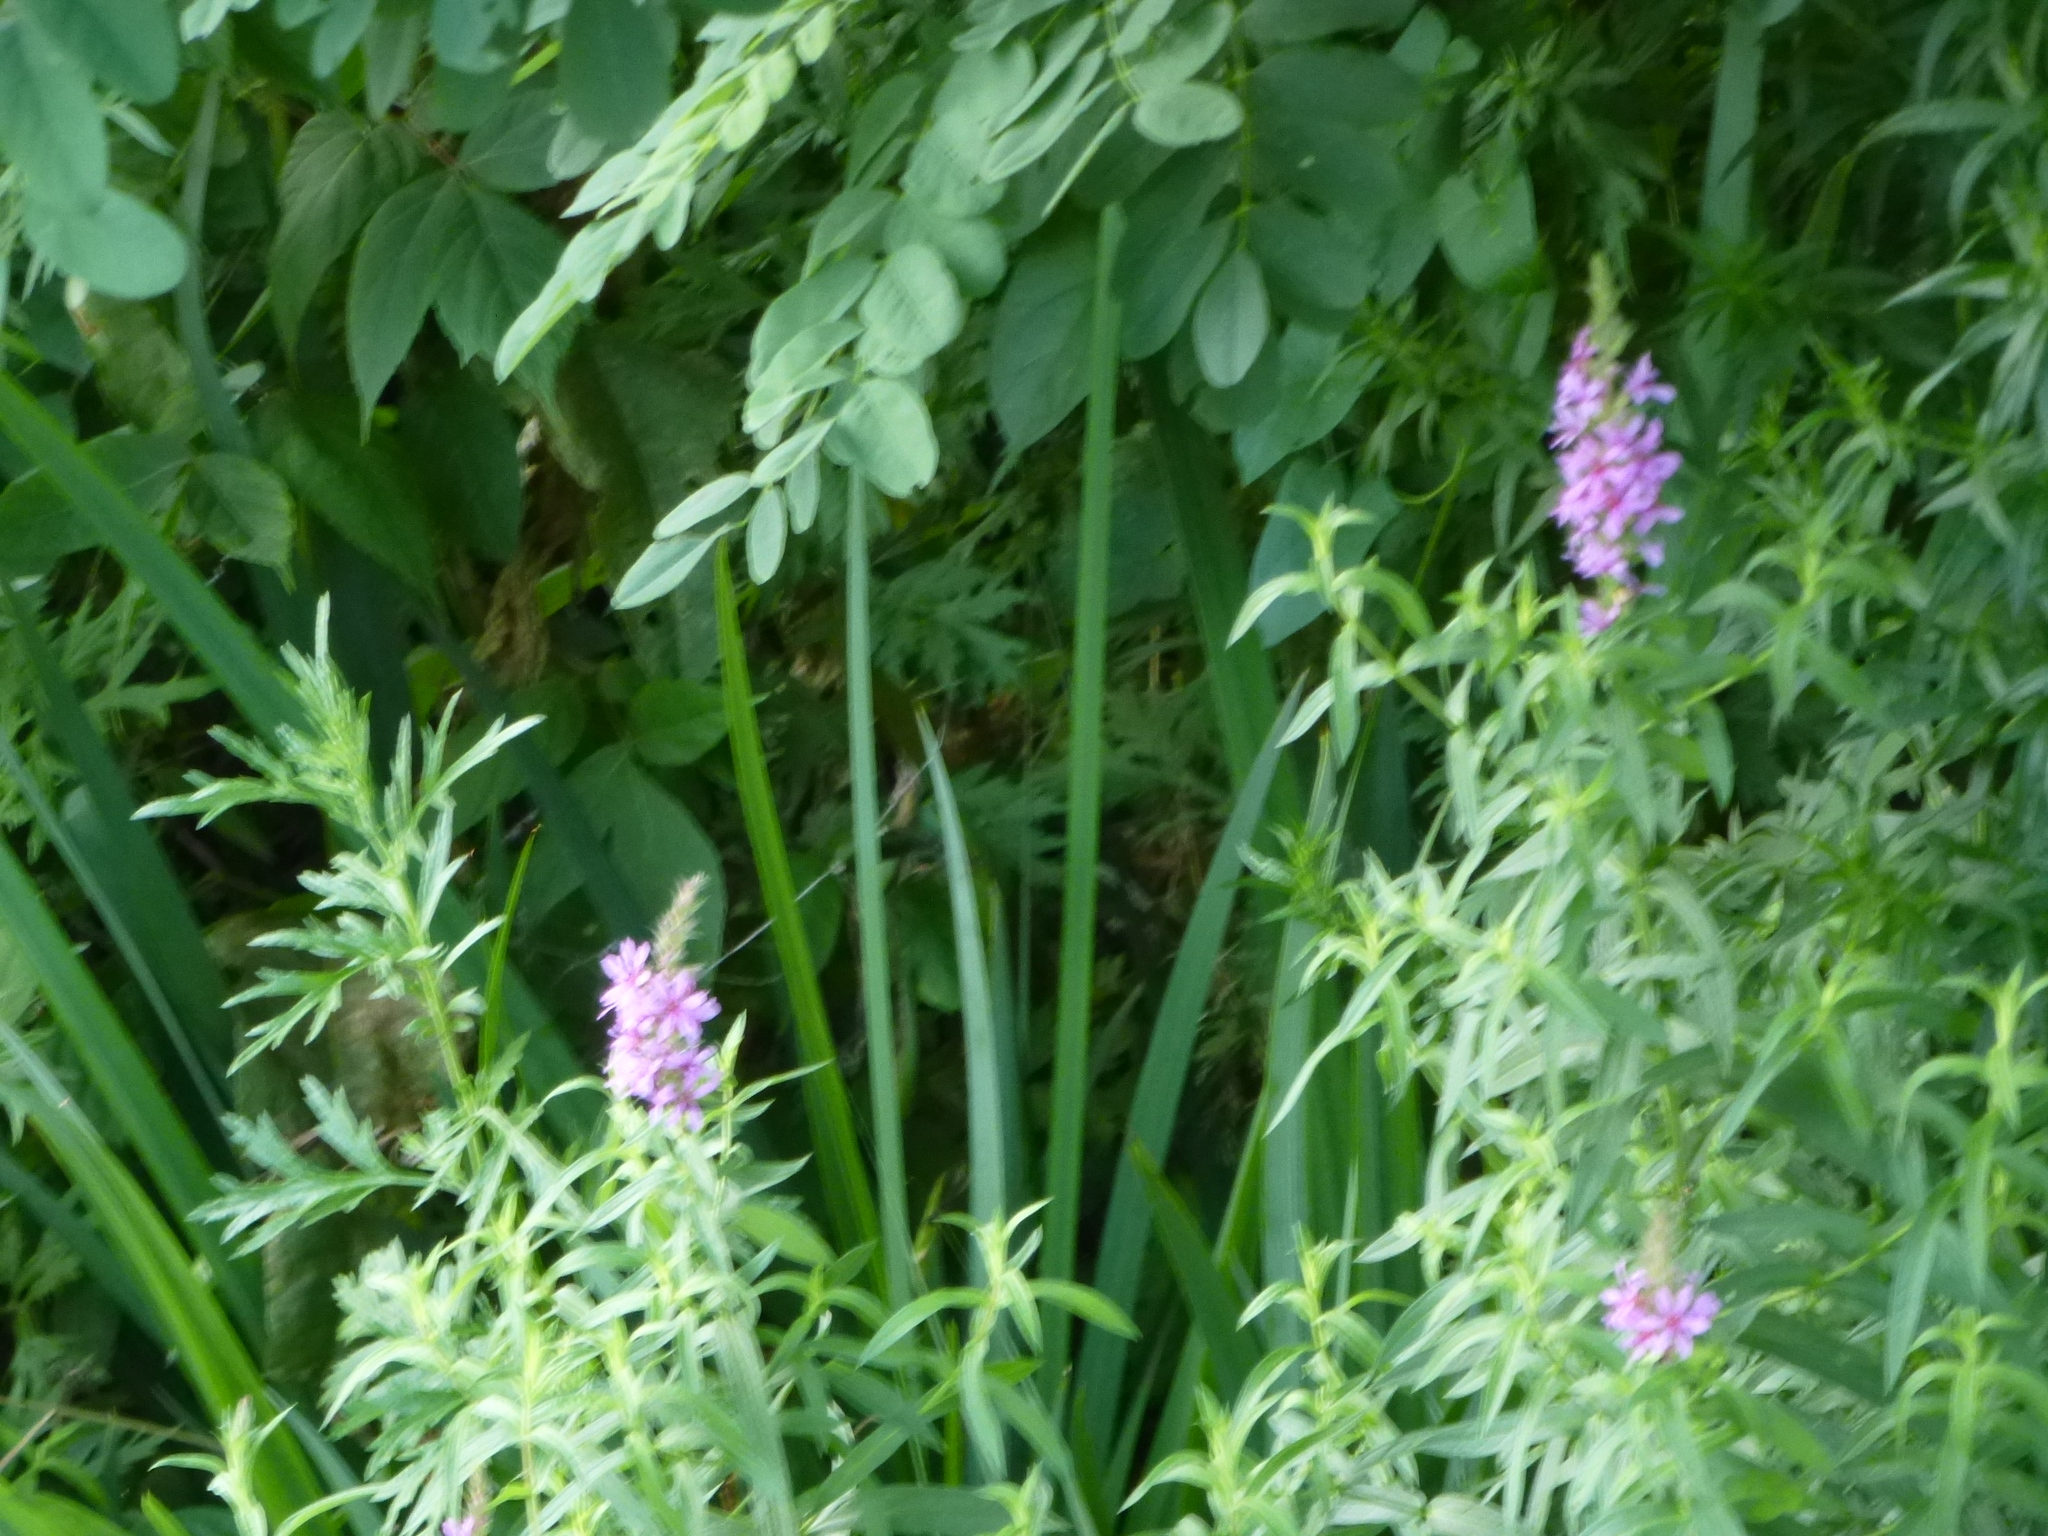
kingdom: Plantae
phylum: Tracheophyta
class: Magnoliopsida
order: Myrtales
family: Lythraceae
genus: Lythrum
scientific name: Lythrum salicaria
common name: Purple loosestrife
